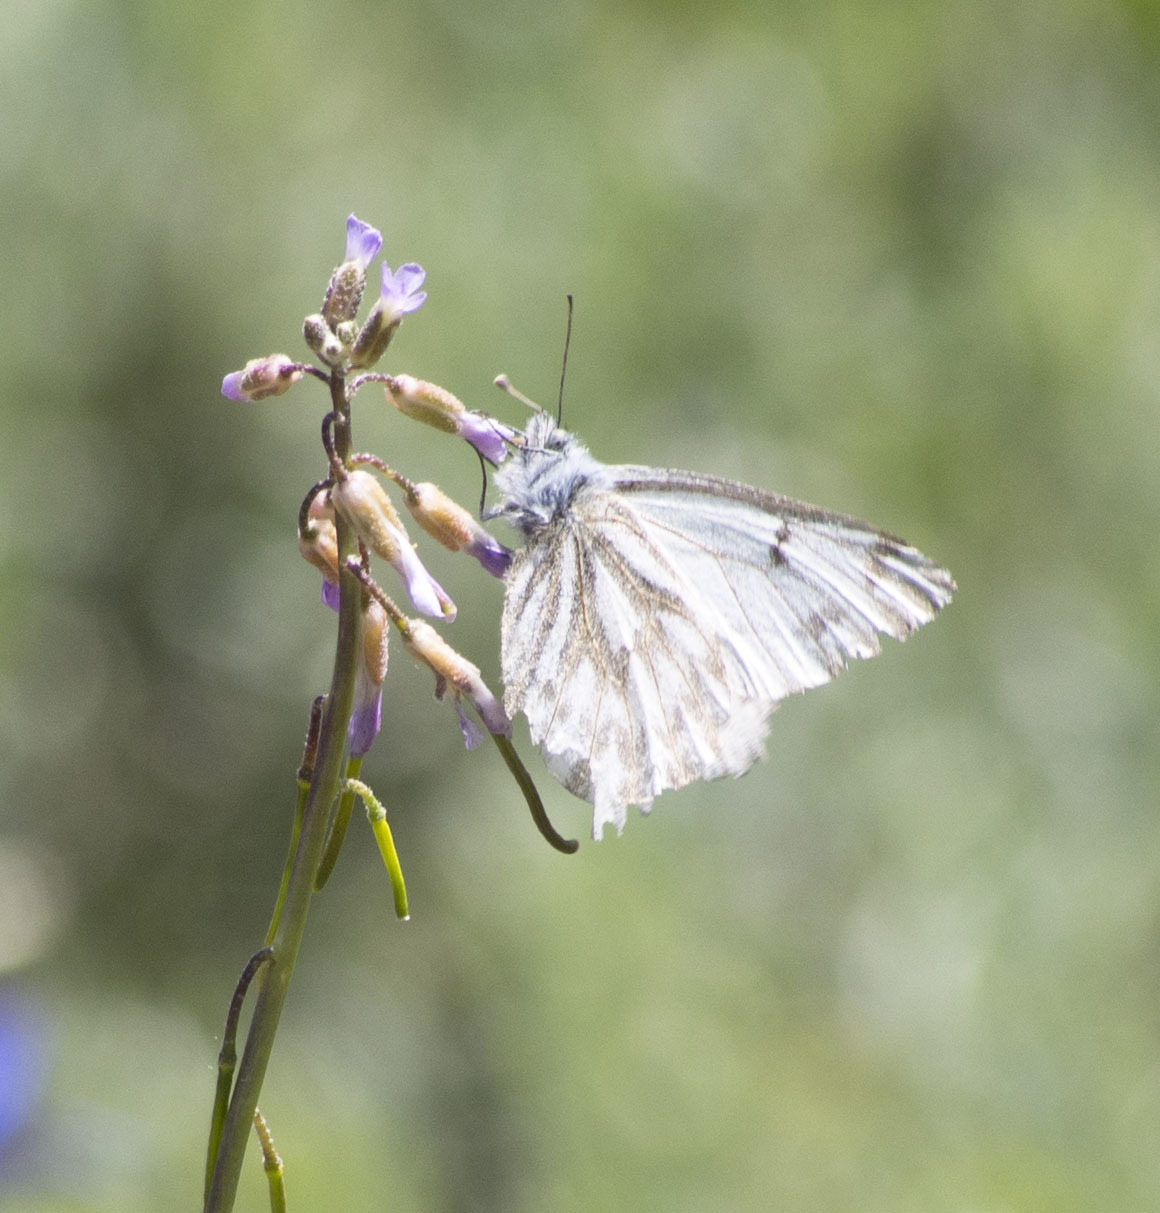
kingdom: Animalia
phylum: Arthropoda
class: Insecta
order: Lepidoptera
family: Pieridae
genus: Pontia
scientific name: Pontia sisymbrii
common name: California white
